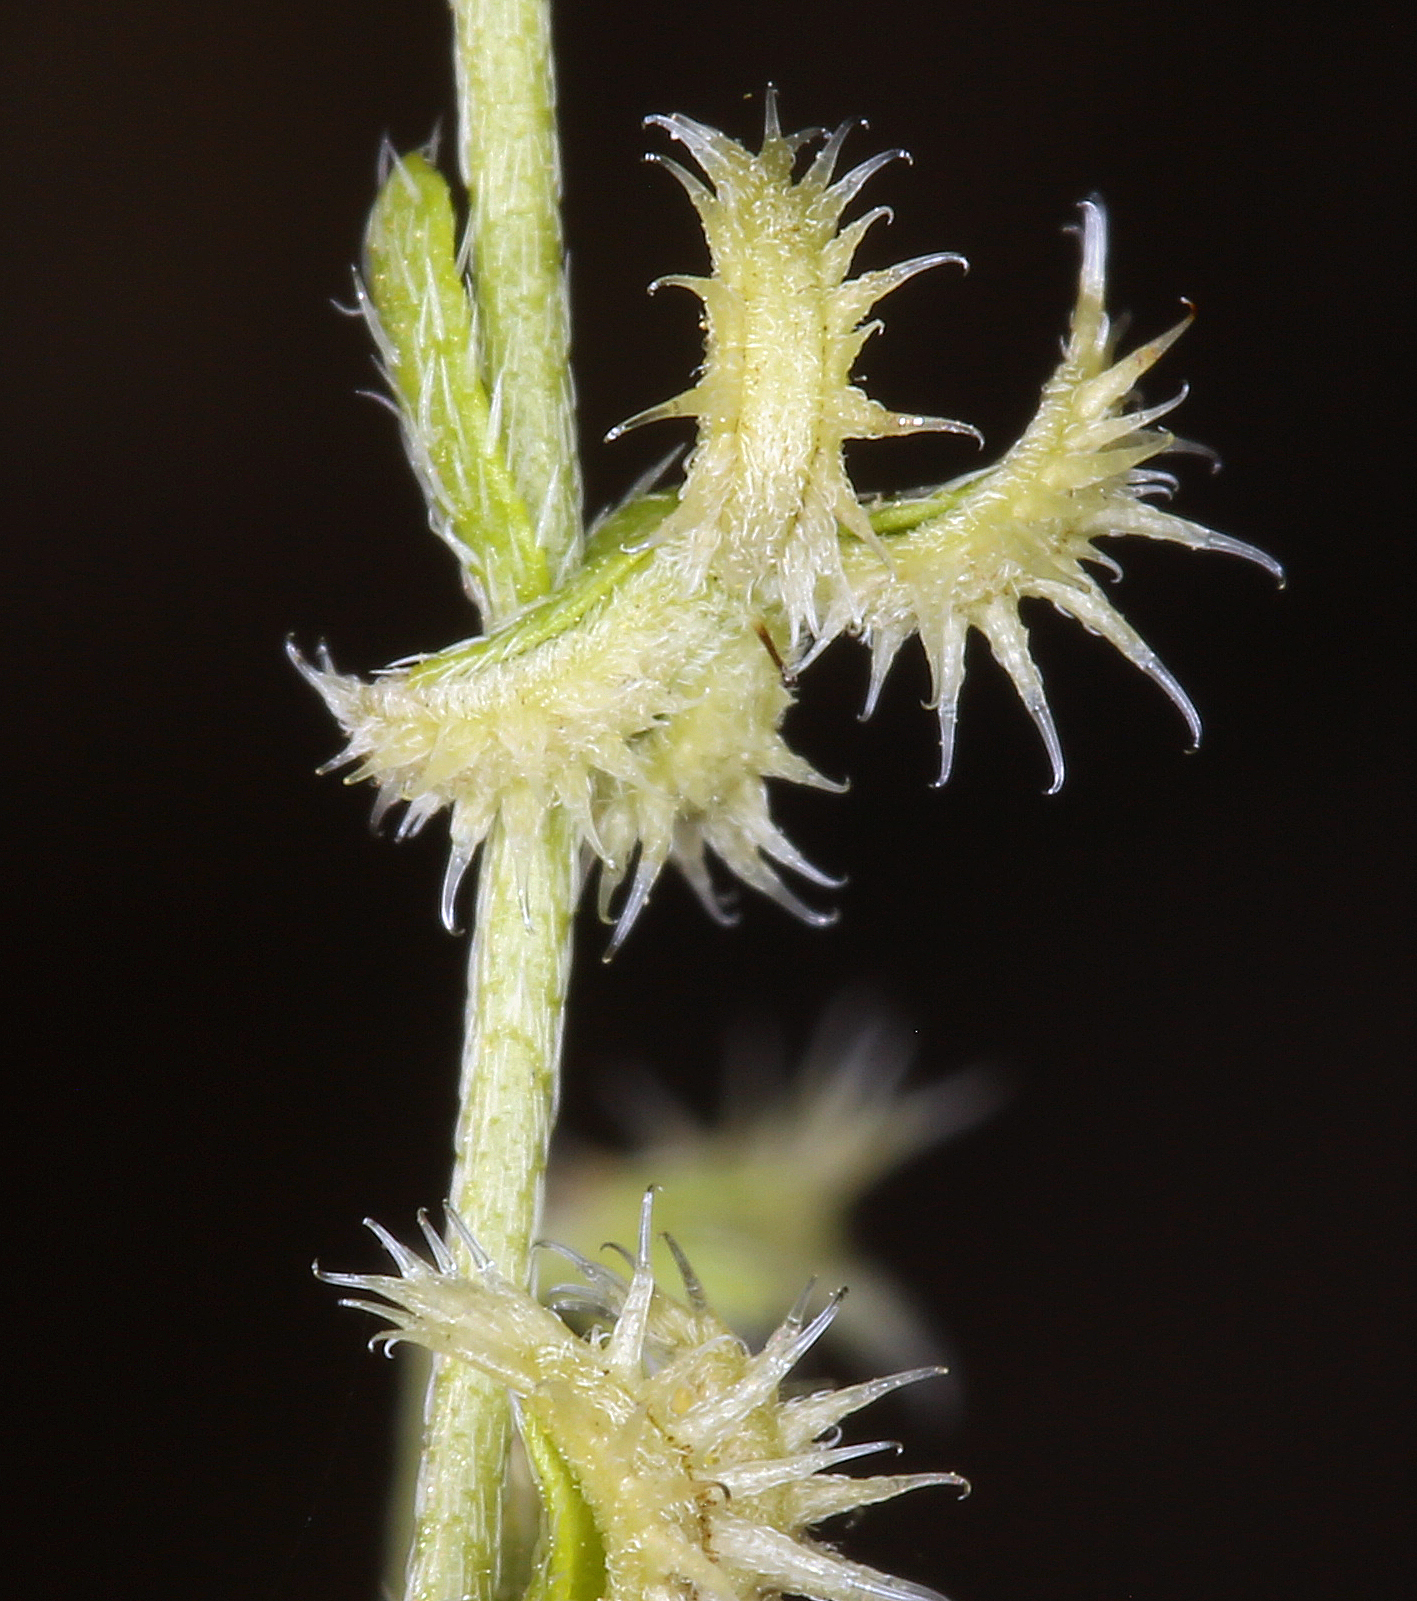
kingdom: Plantae
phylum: Tracheophyta
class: Magnoliopsida
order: Boraginales
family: Boraginaceae
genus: Pectocarya
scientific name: Pectocarya recurvata
